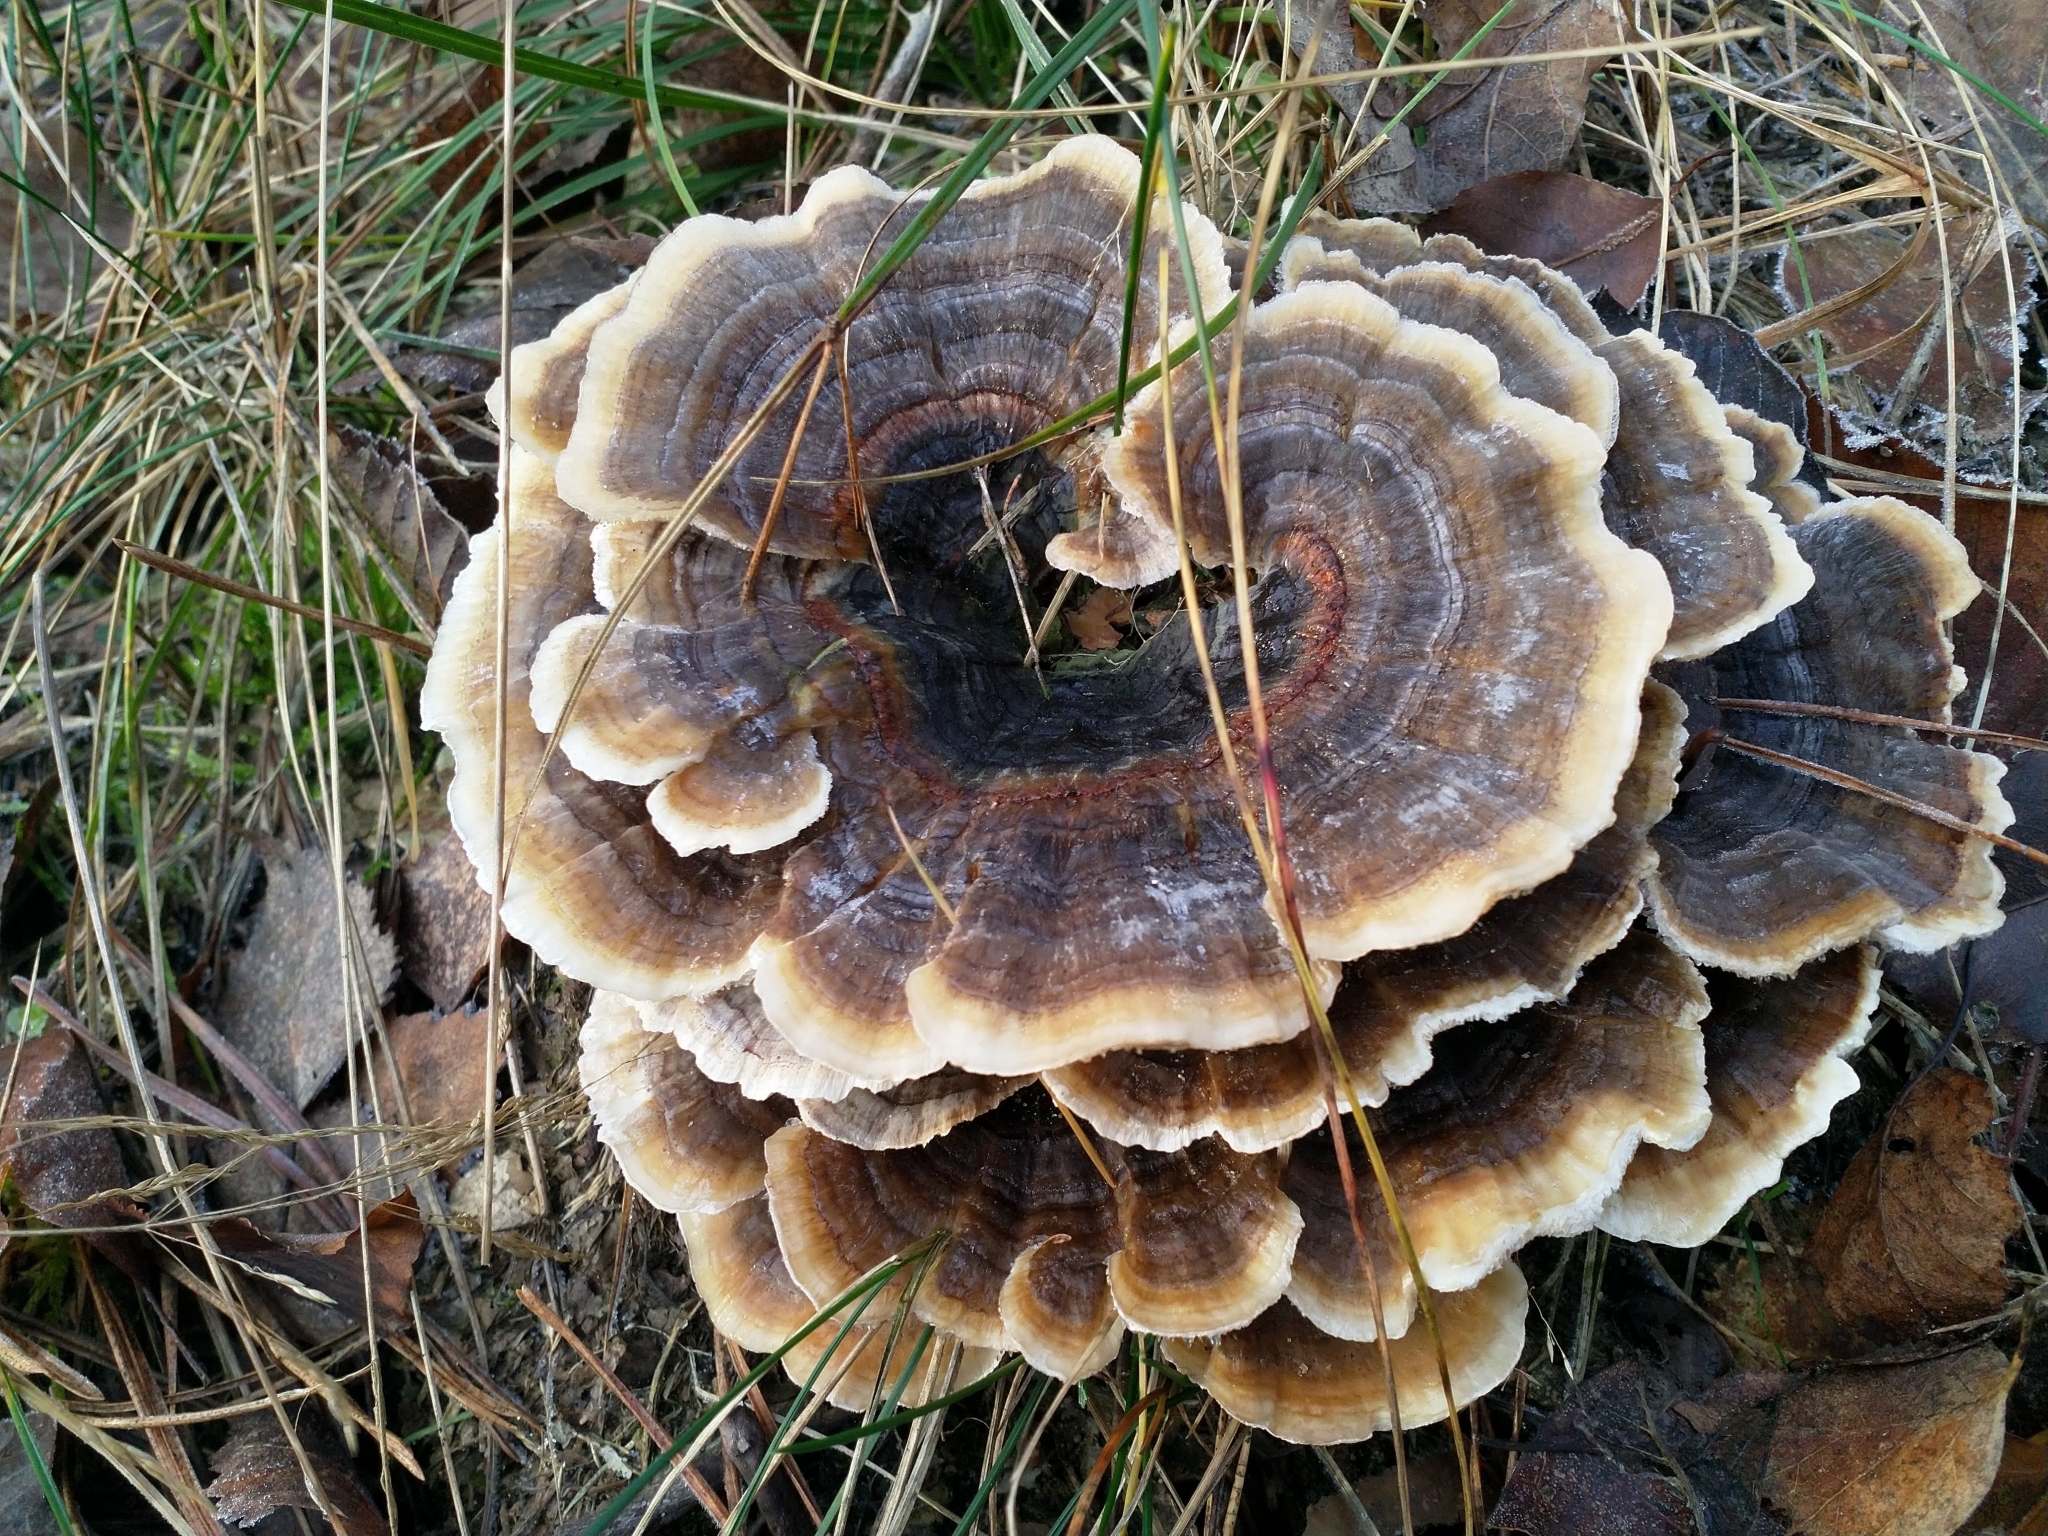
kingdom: Fungi
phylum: Basidiomycota
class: Agaricomycetes
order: Polyporales
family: Polyporaceae
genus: Trametes
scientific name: Trametes versicolor
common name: Turkeytail
